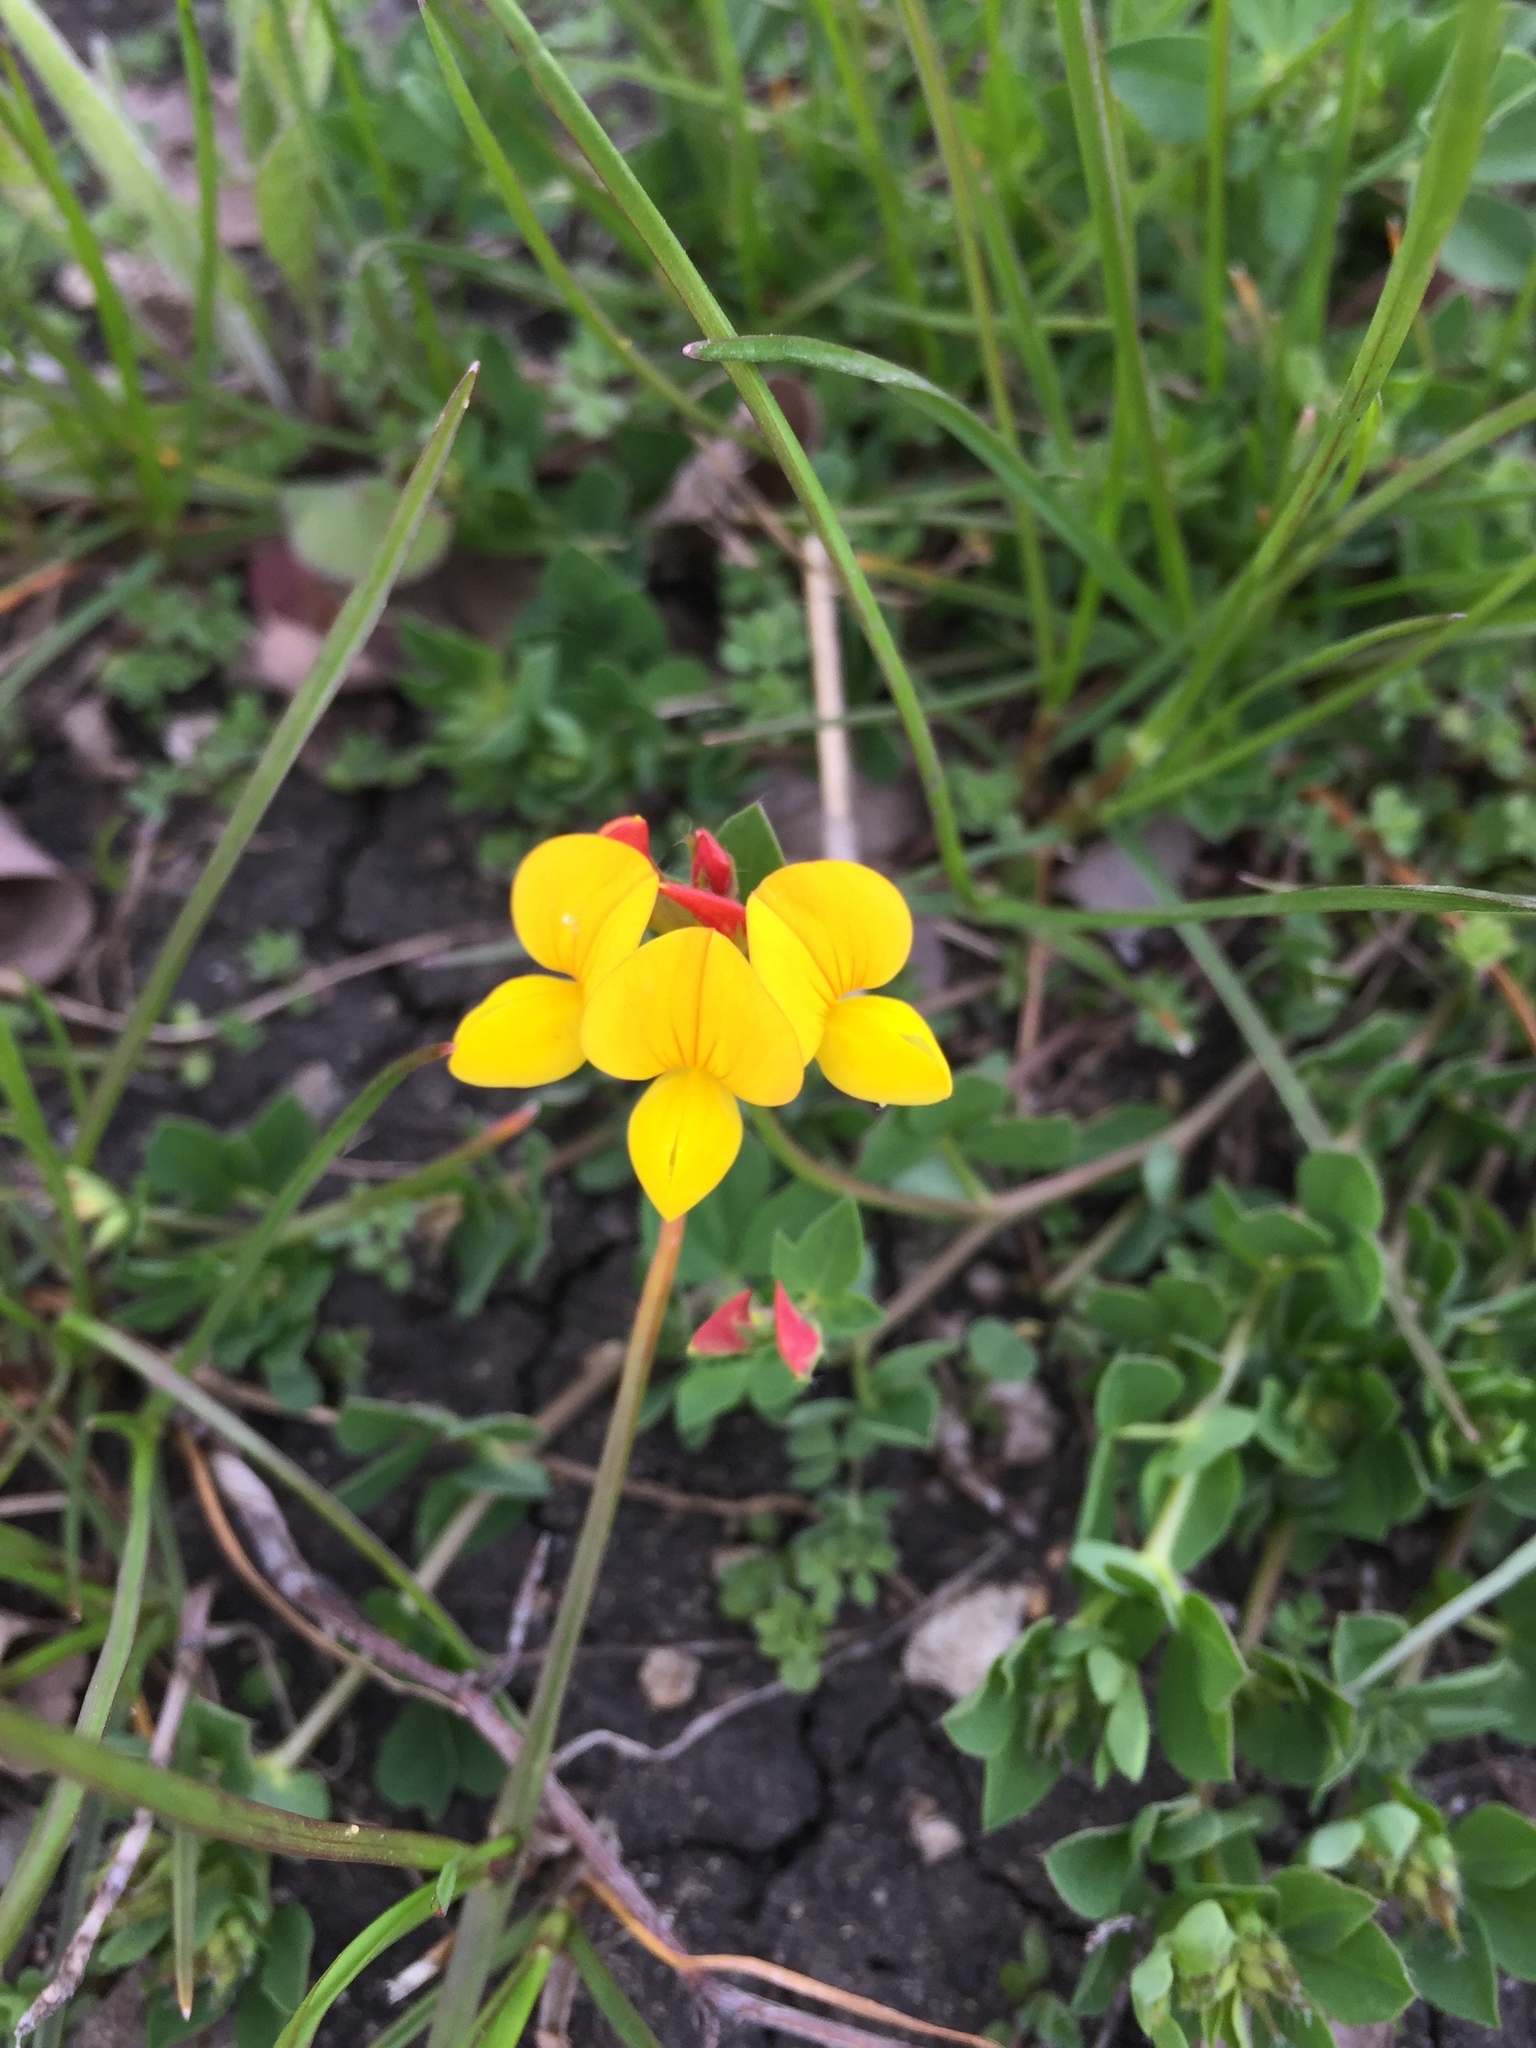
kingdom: Plantae
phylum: Tracheophyta
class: Magnoliopsida
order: Fabales
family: Fabaceae
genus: Lotus
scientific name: Lotus corniculatus
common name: Common bird's-foot-trefoil
